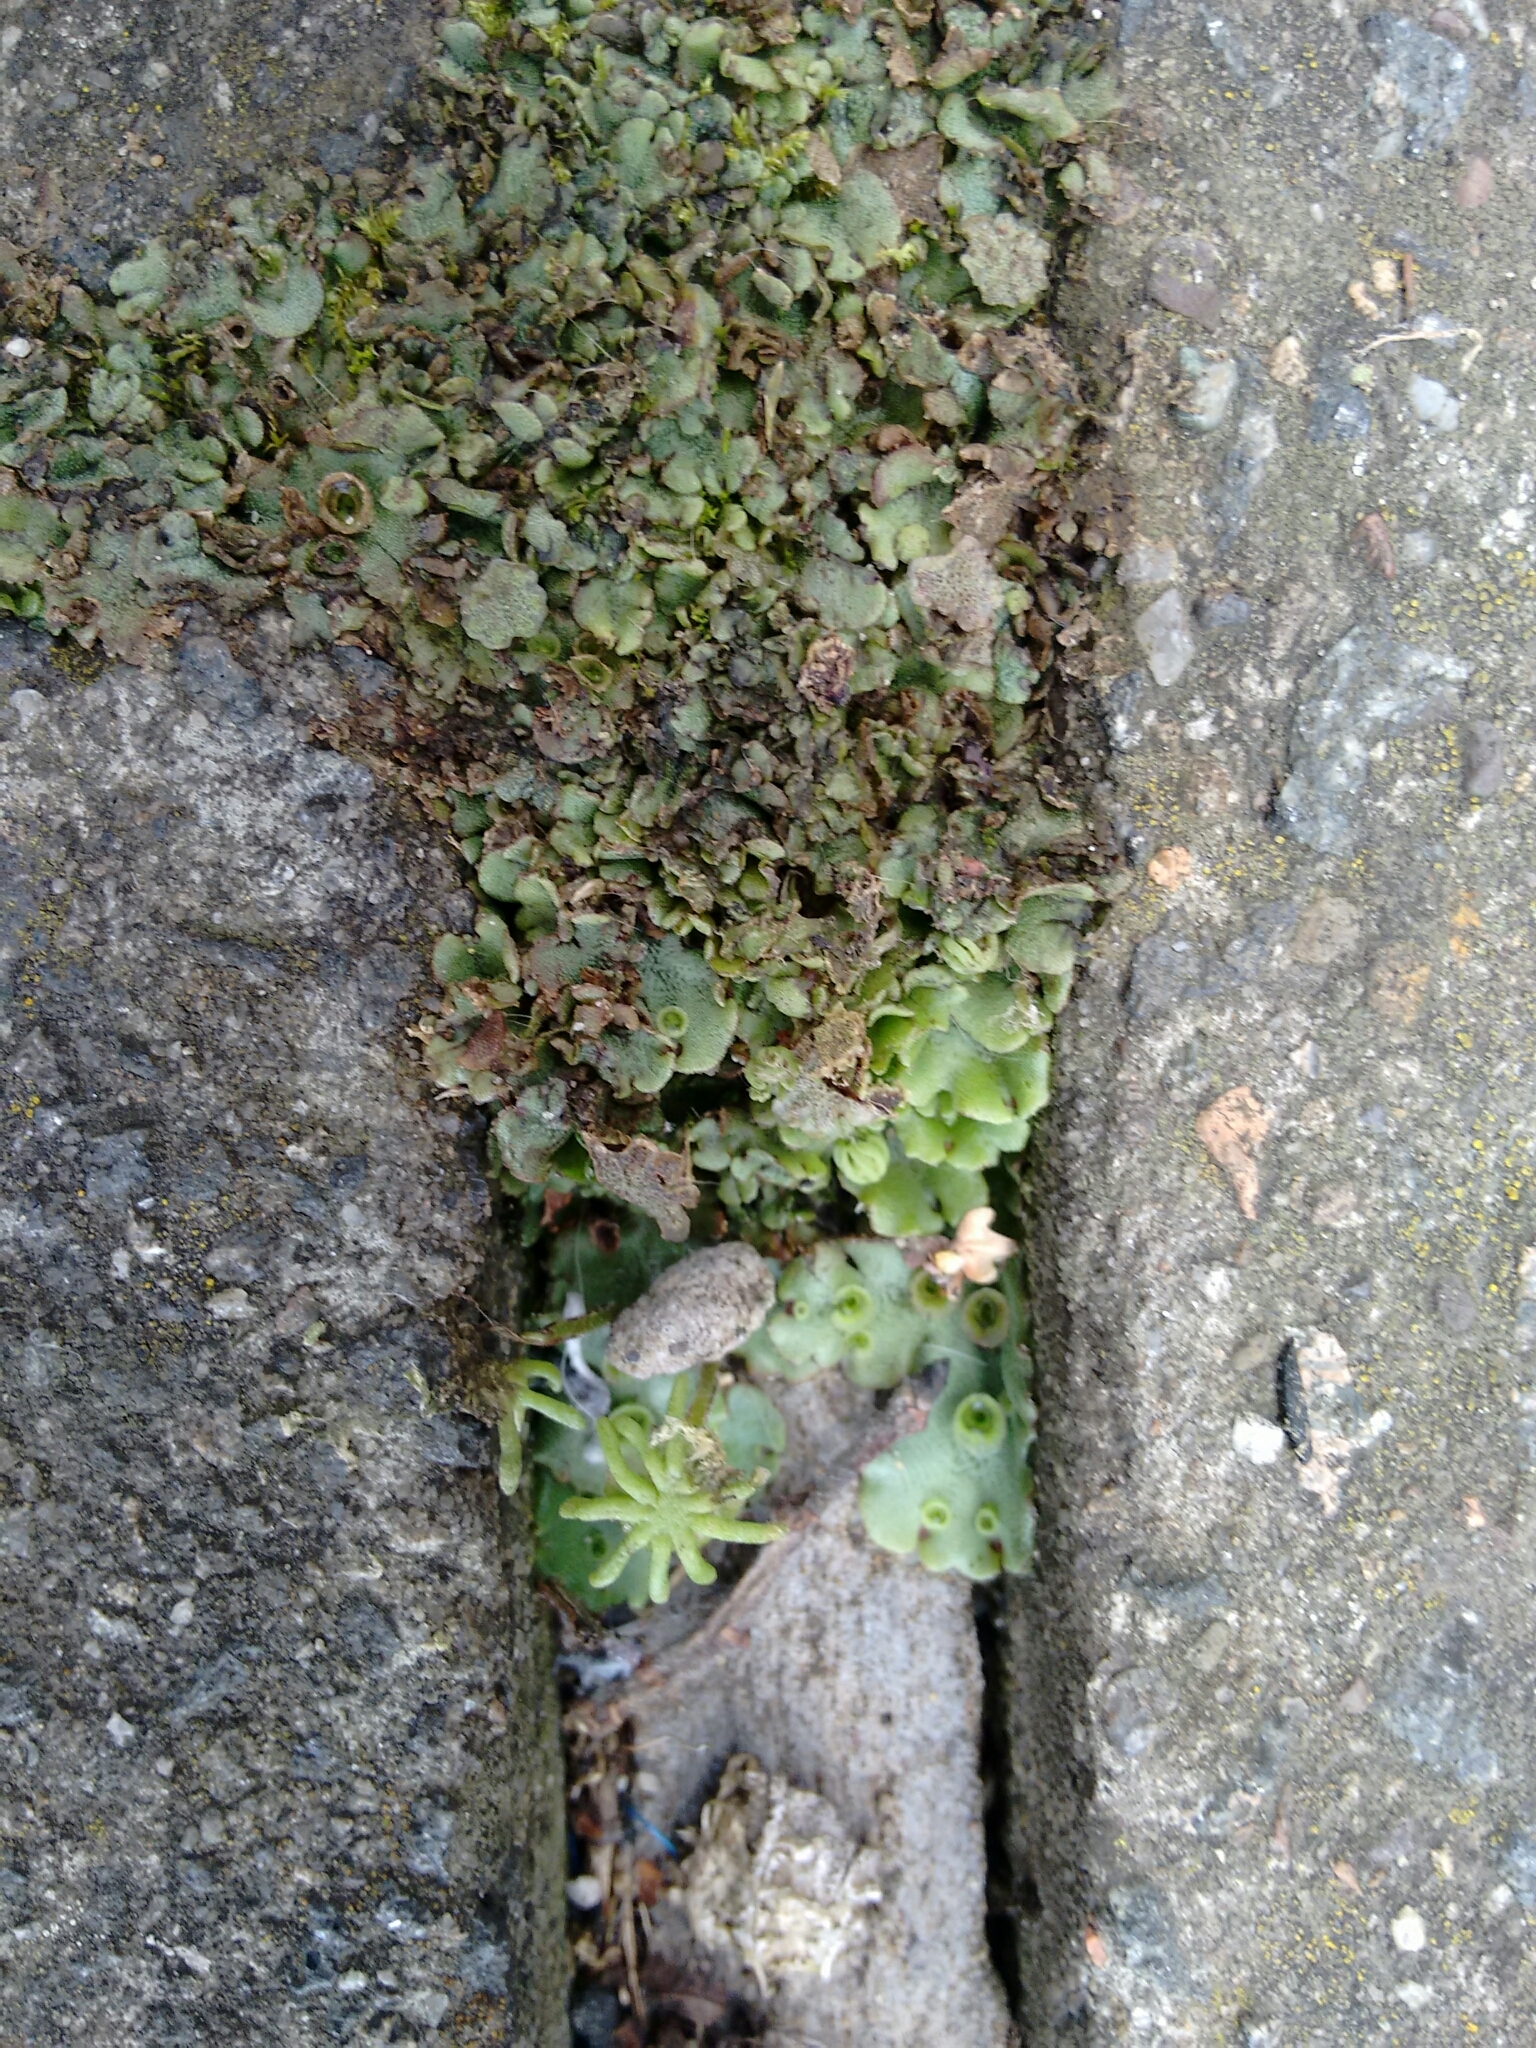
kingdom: Plantae
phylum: Marchantiophyta
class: Marchantiopsida
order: Marchantiales
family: Marchantiaceae
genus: Marchantia
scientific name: Marchantia polymorpha
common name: Common liverwort
